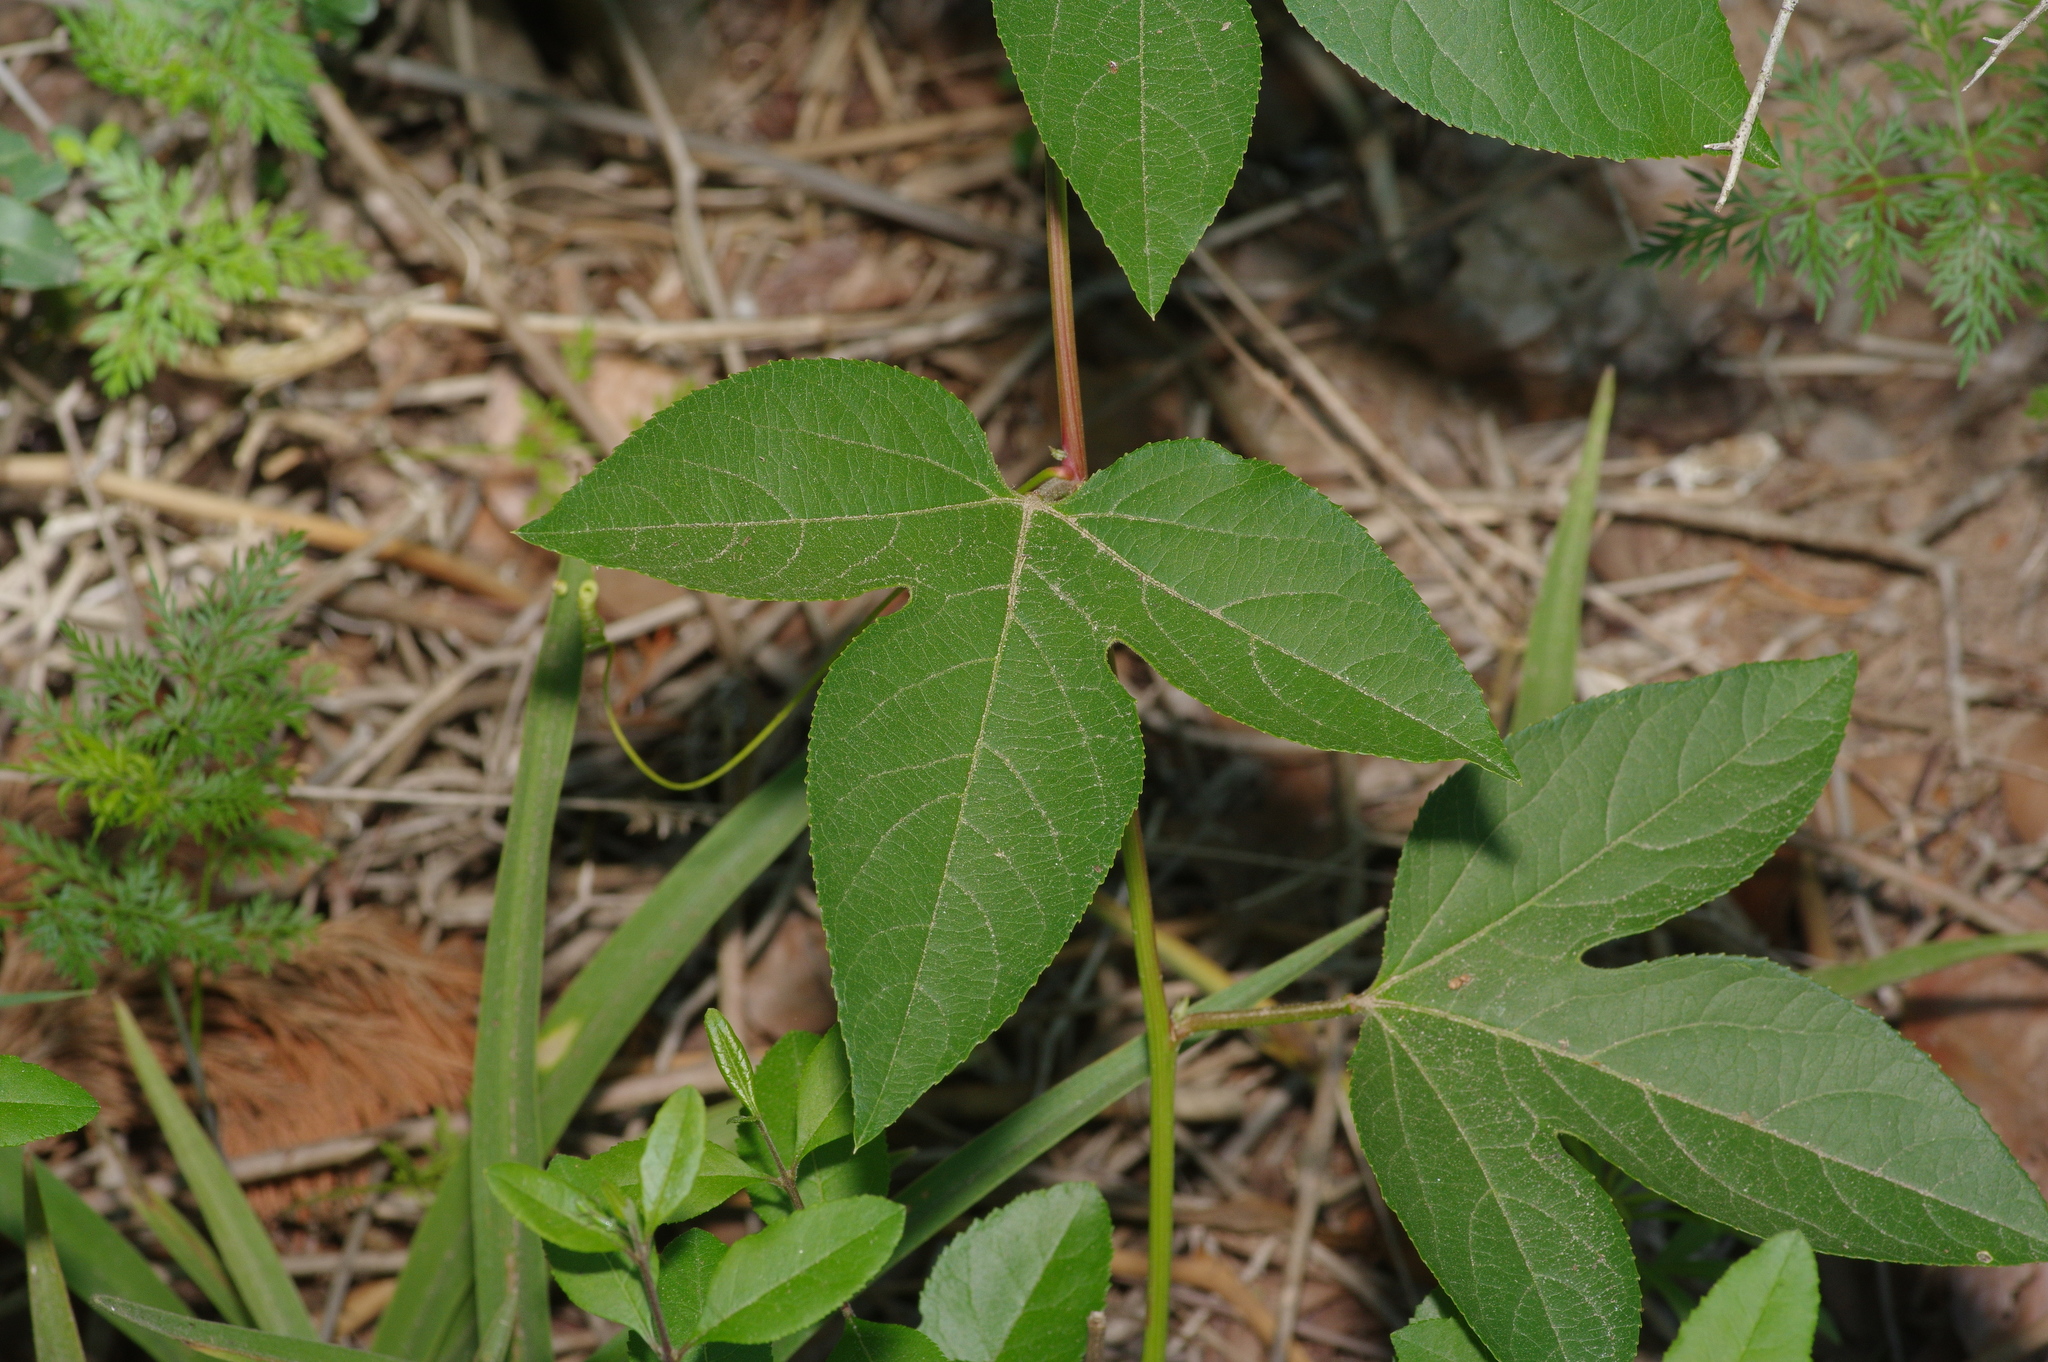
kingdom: Plantae
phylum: Tracheophyta
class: Magnoliopsida
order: Malpighiales
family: Passifloraceae
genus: Passiflora
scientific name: Passiflora incarnata
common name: Apricot-vine
